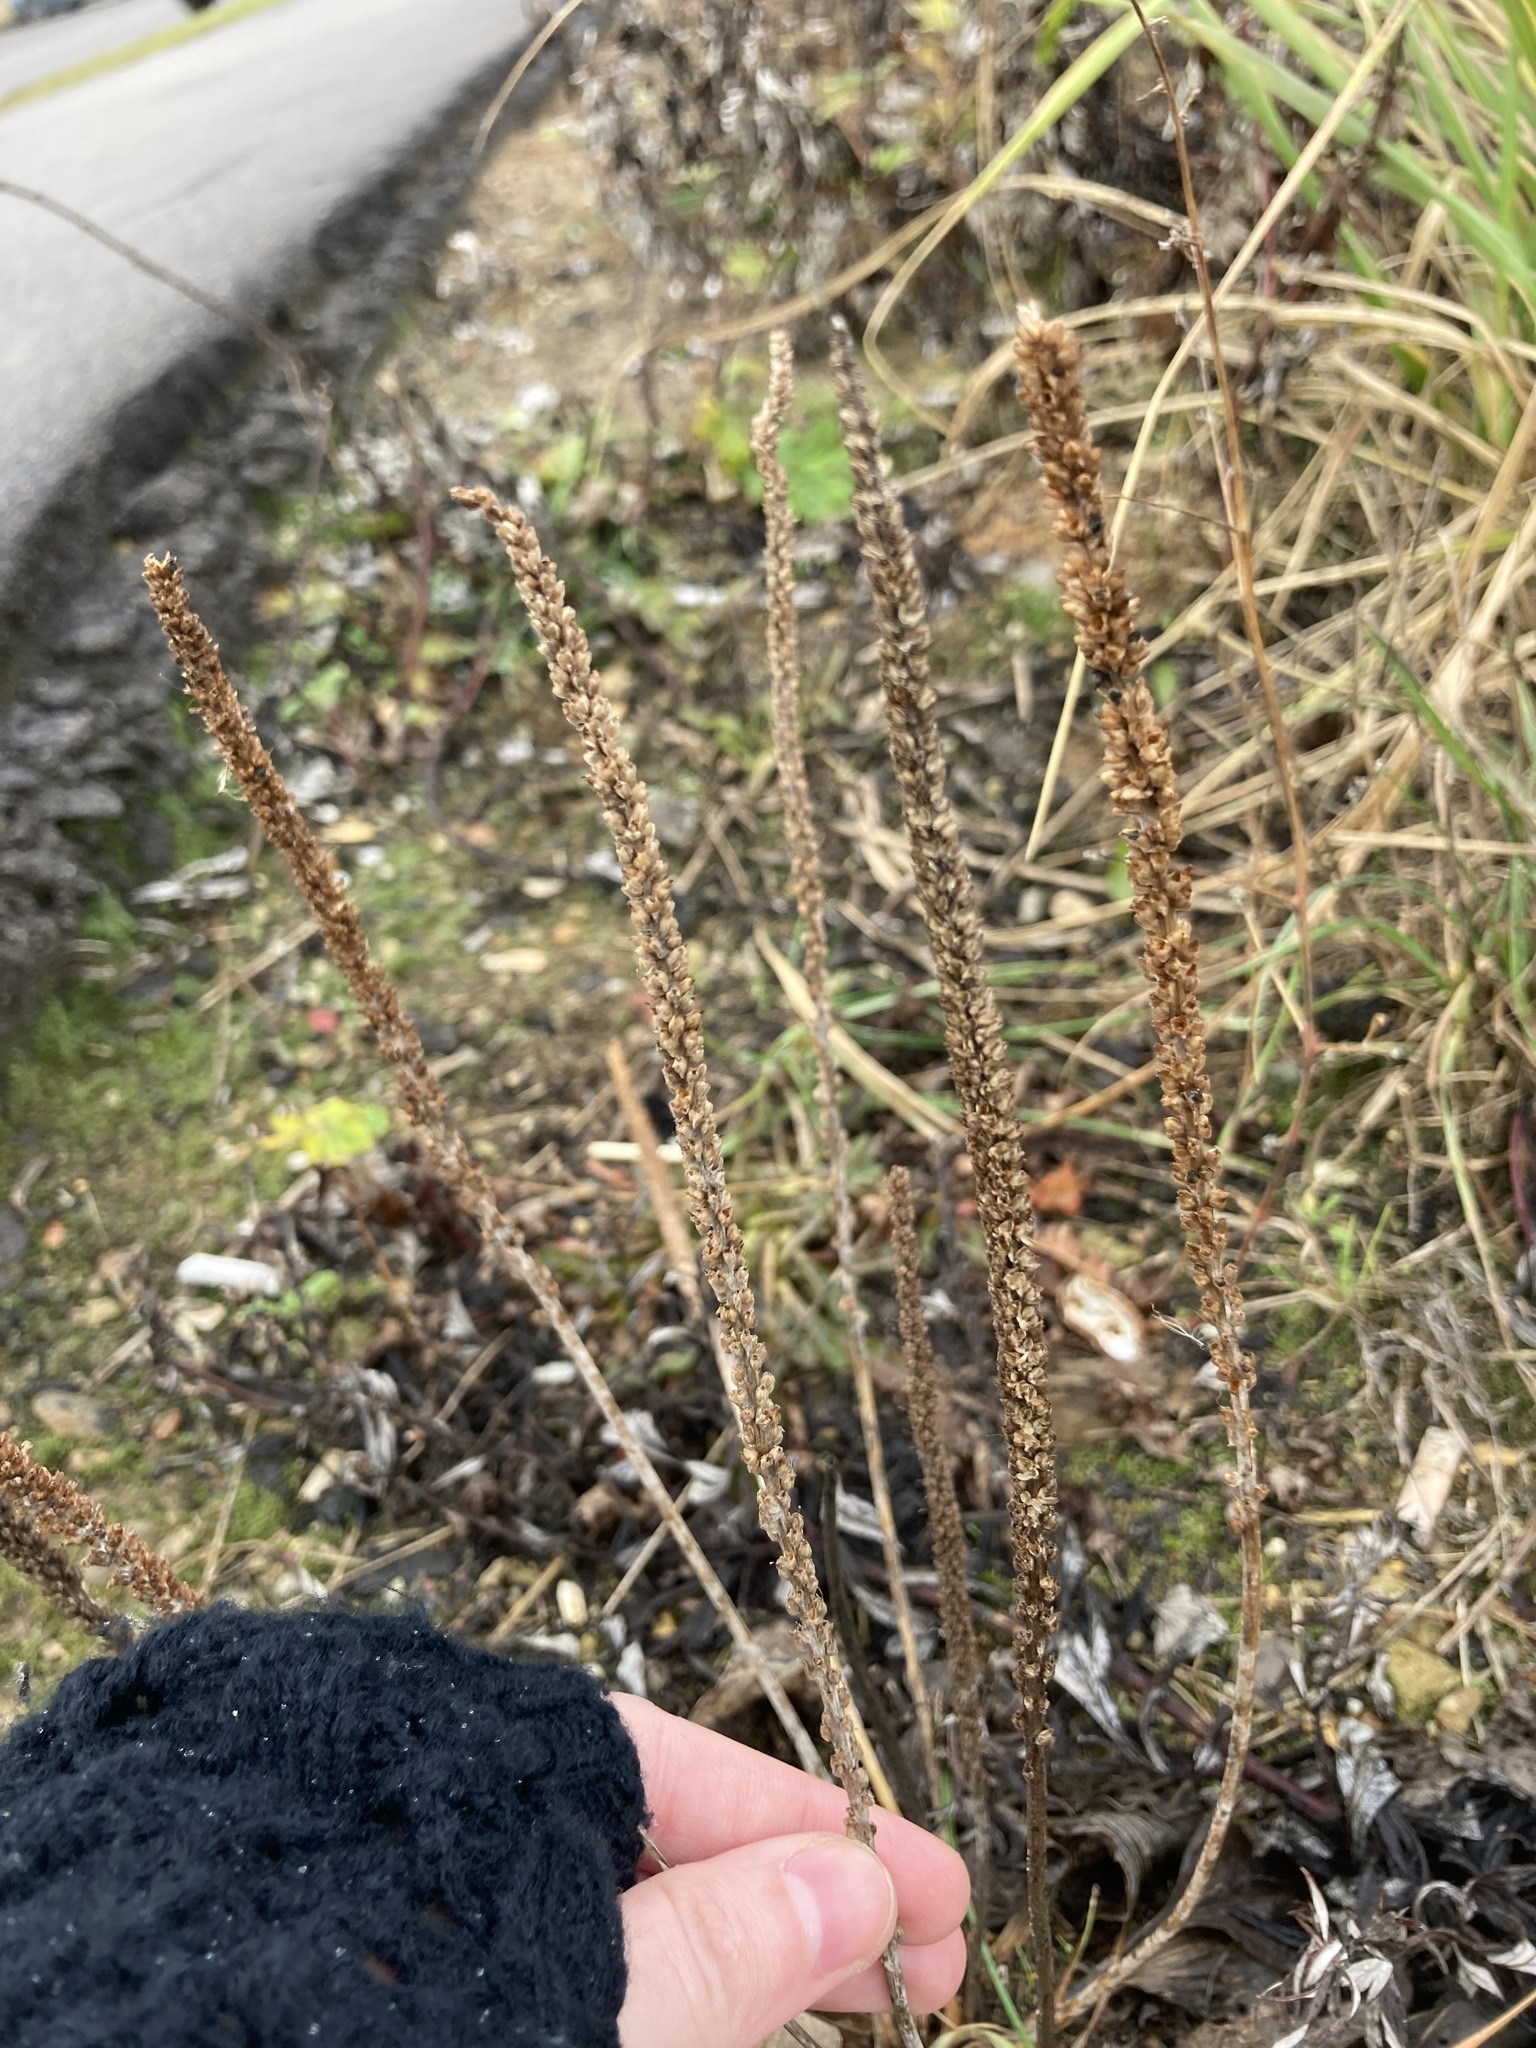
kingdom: Plantae
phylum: Tracheophyta
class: Magnoliopsida
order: Lamiales
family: Plantaginaceae
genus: Plantago
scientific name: Plantago major
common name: Common plantain
